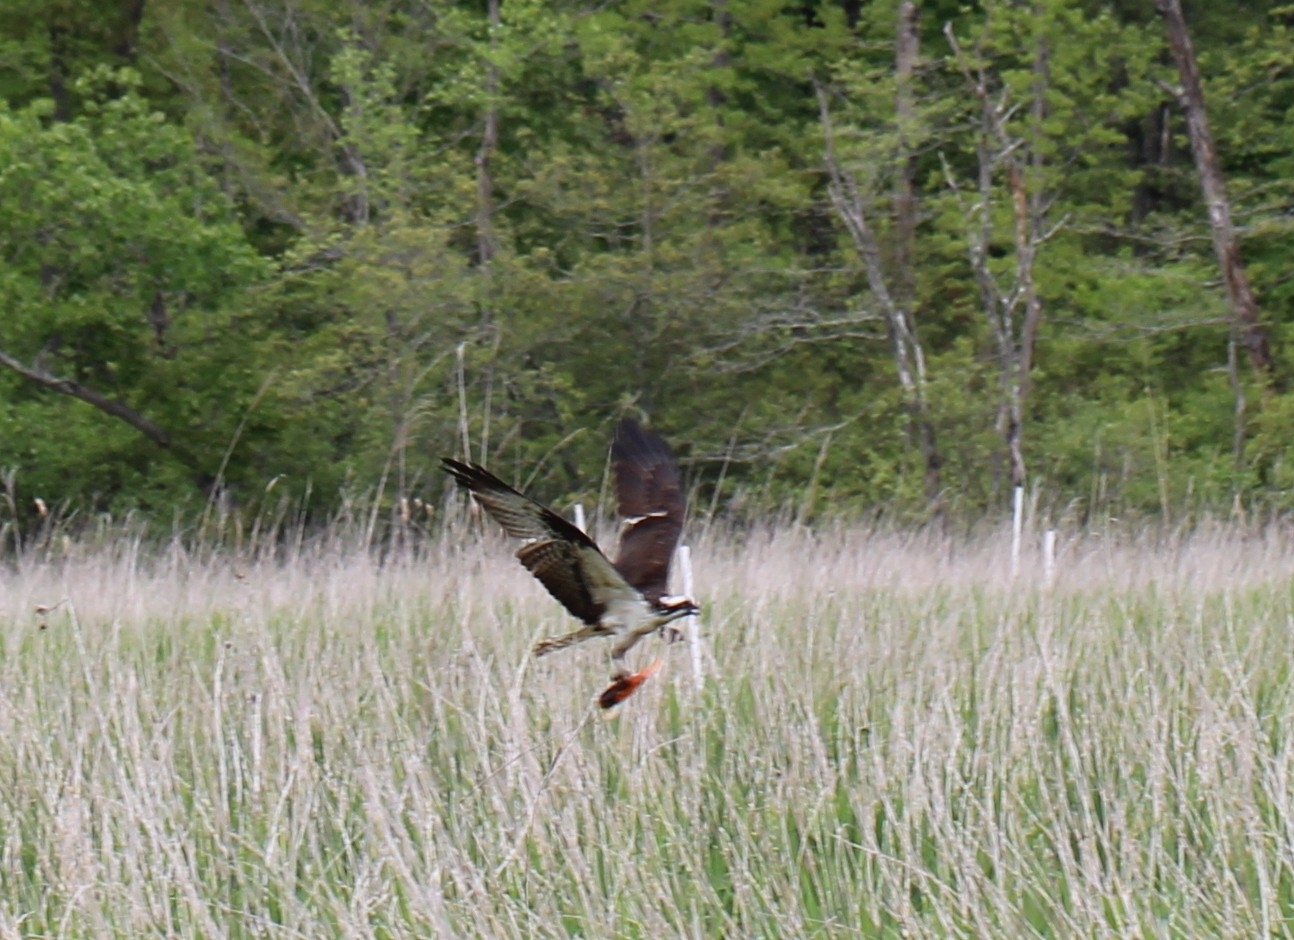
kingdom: Animalia
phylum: Chordata
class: Aves
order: Accipitriformes
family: Pandionidae
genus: Pandion
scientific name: Pandion haliaetus
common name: Osprey
